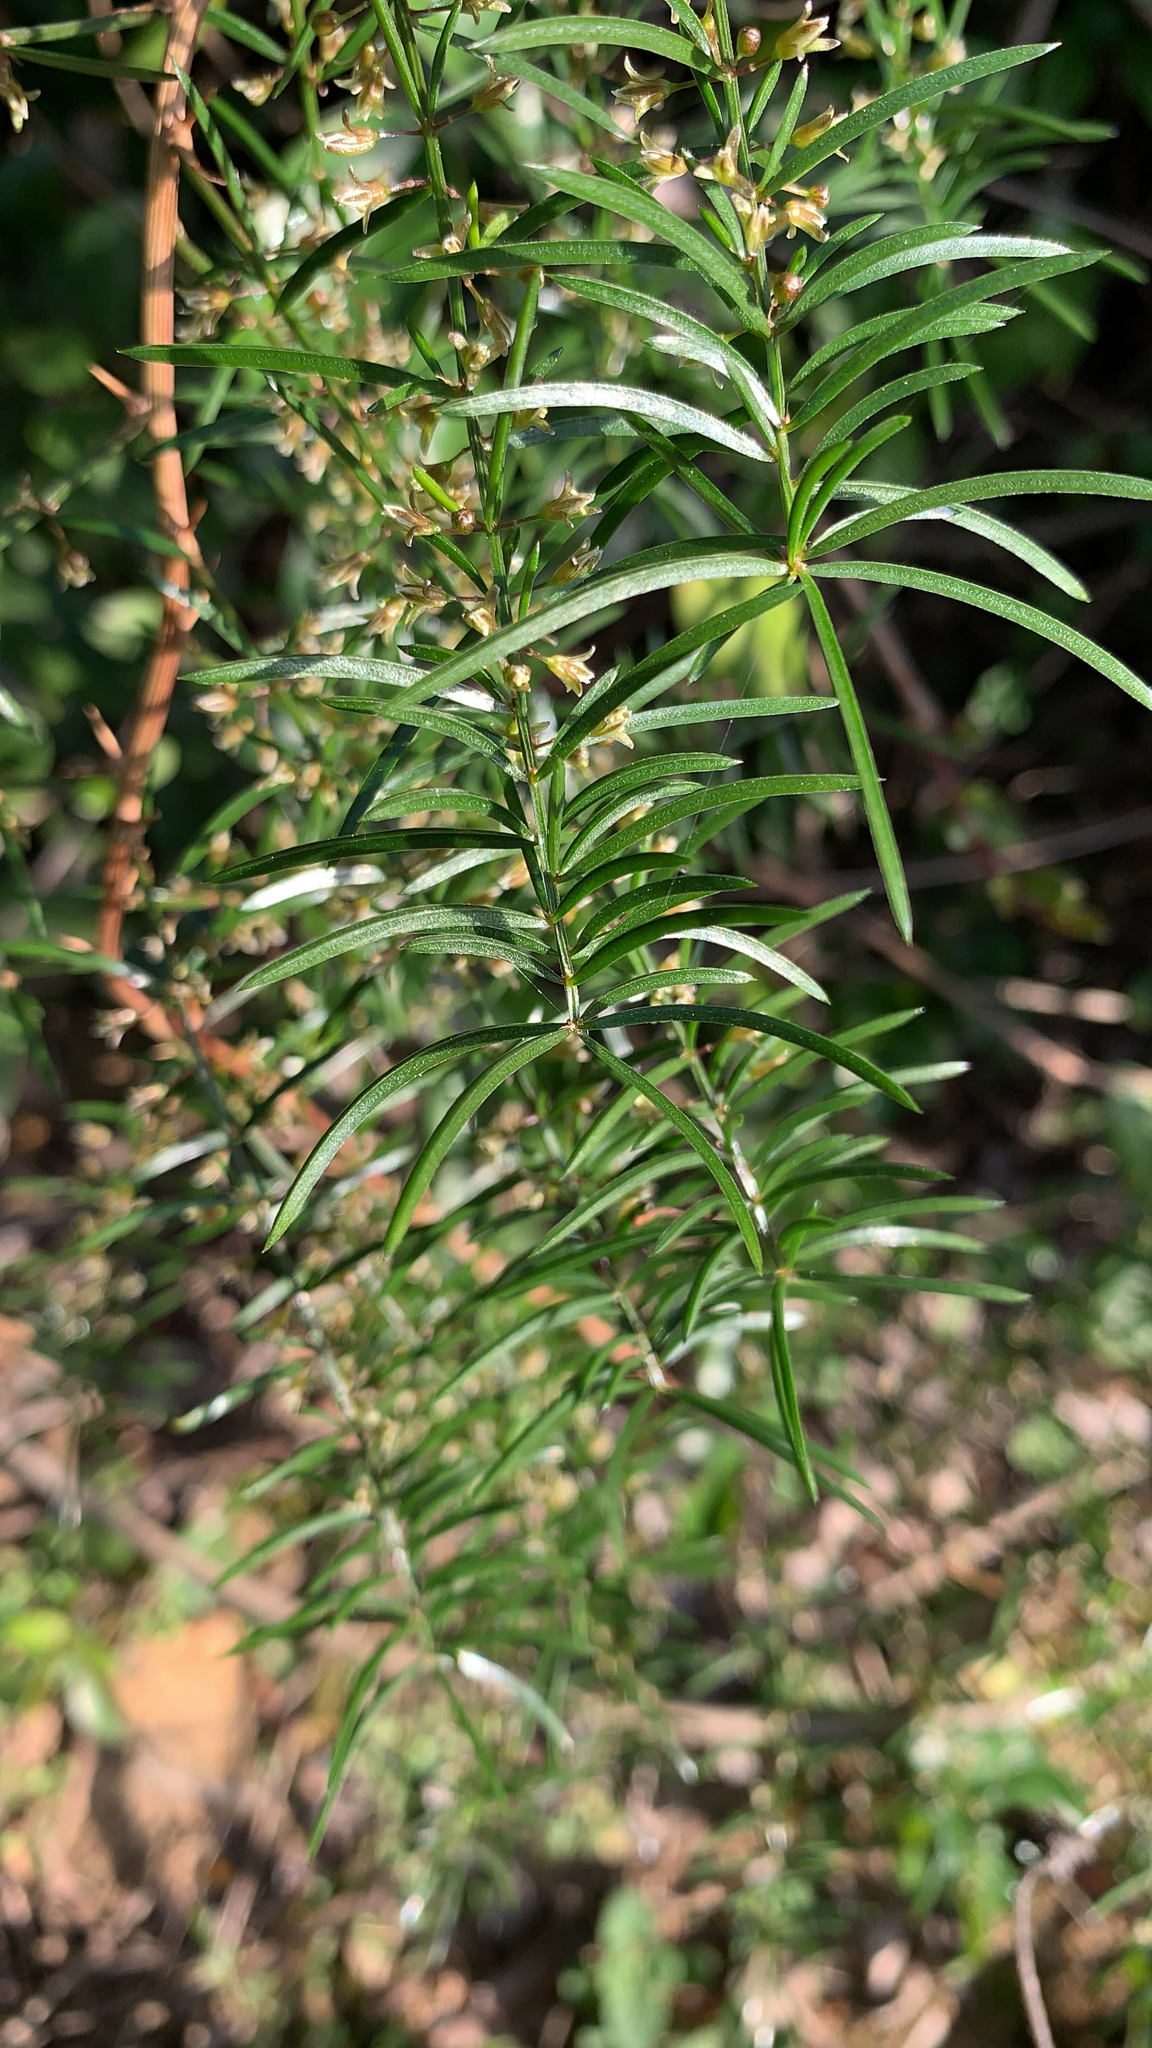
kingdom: Plantae
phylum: Tracheophyta
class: Liliopsida
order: Asparagales
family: Asparagaceae
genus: Asparagus
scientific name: Asparagus cochinchinensis
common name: Chinese asparagus
